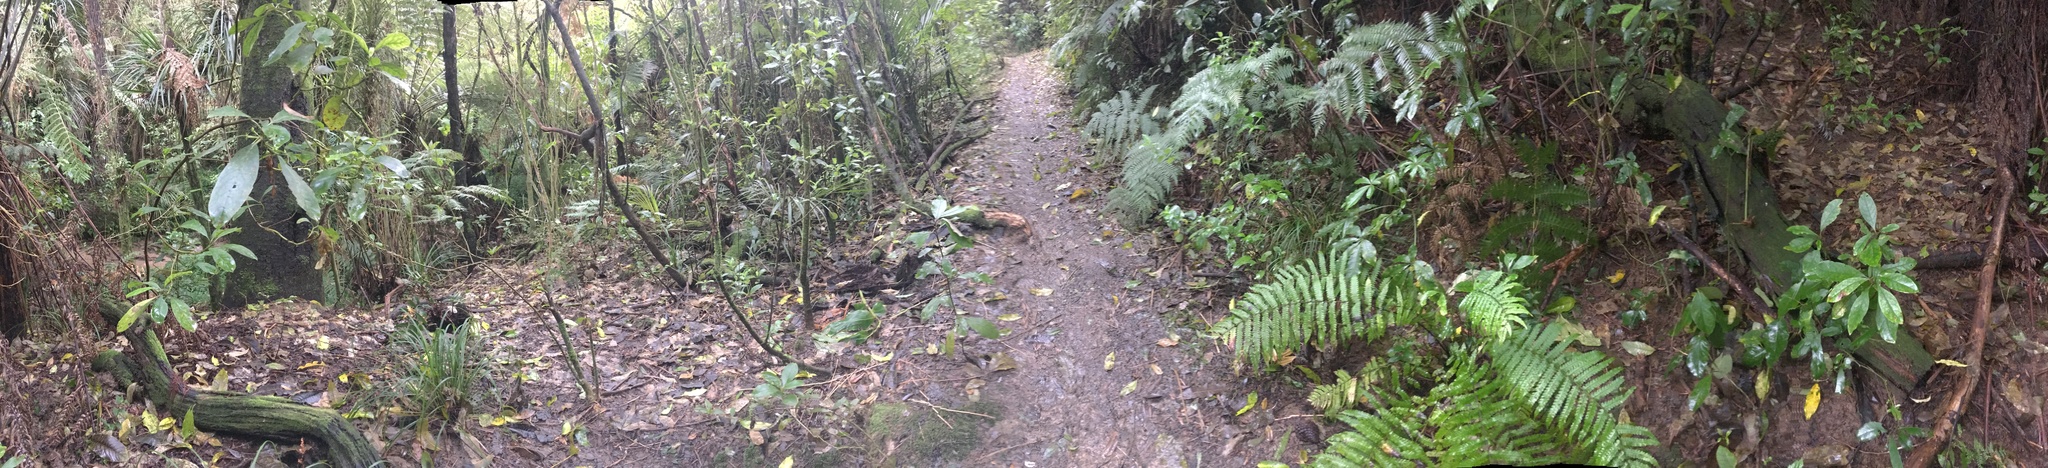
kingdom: Plantae
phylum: Tracheophyta
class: Polypodiopsida
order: Polypodiales
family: Thelypteridaceae
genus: Pakau
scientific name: Pakau pennigera
